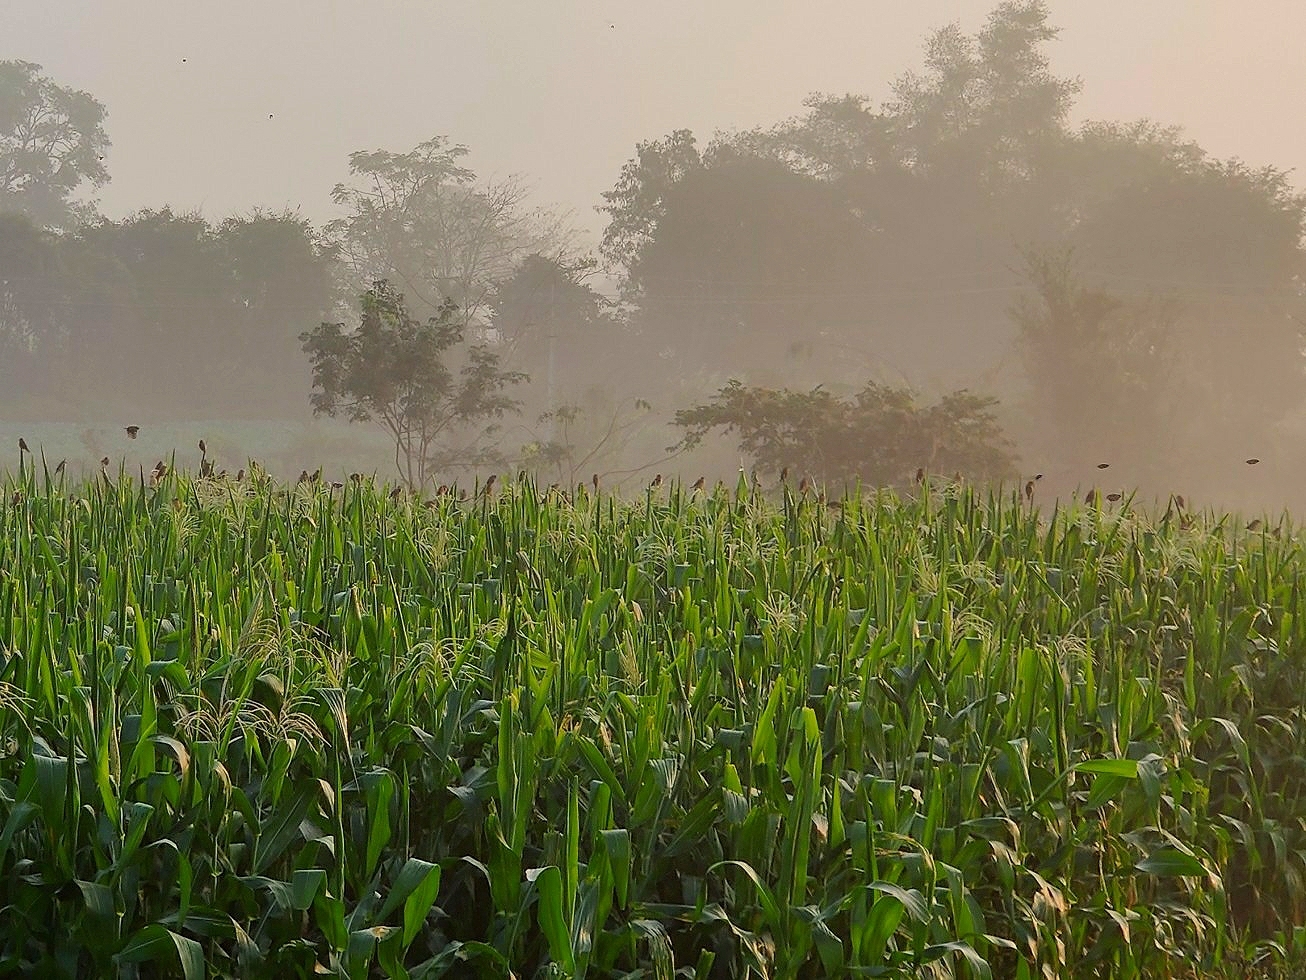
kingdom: Animalia
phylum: Chordata
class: Aves
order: Passeriformes
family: Ploceidae
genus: Ploceus
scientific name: Ploceus philippinus
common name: Baya weaver
